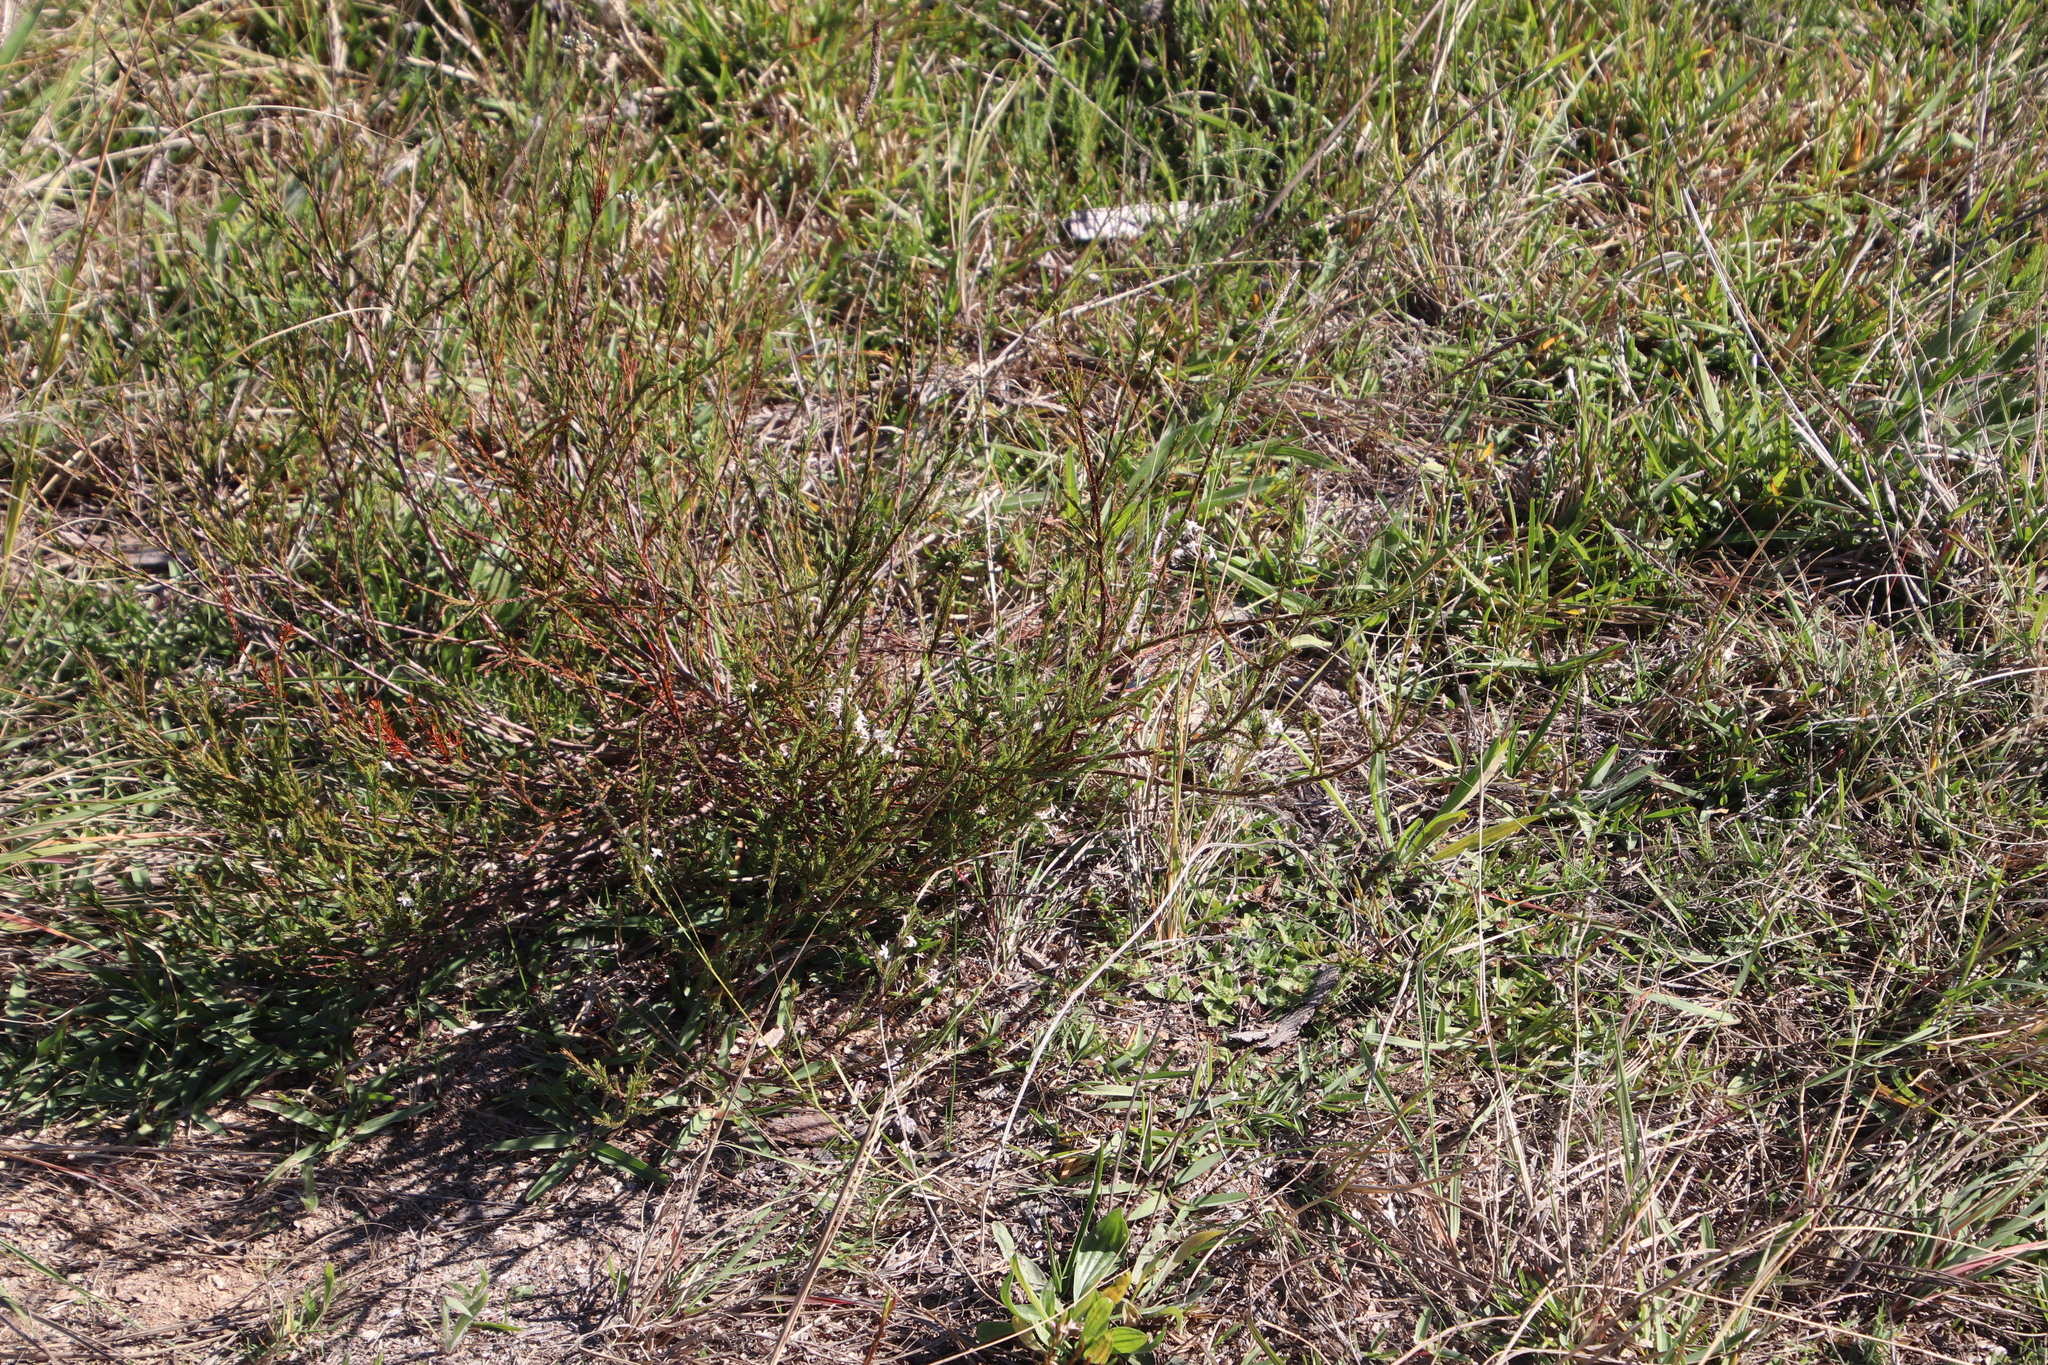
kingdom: Plantae
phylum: Tracheophyta
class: Magnoliopsida
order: Malvales
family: Thymelaeaceae
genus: Struthiola
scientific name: Struthiola dodecandra
